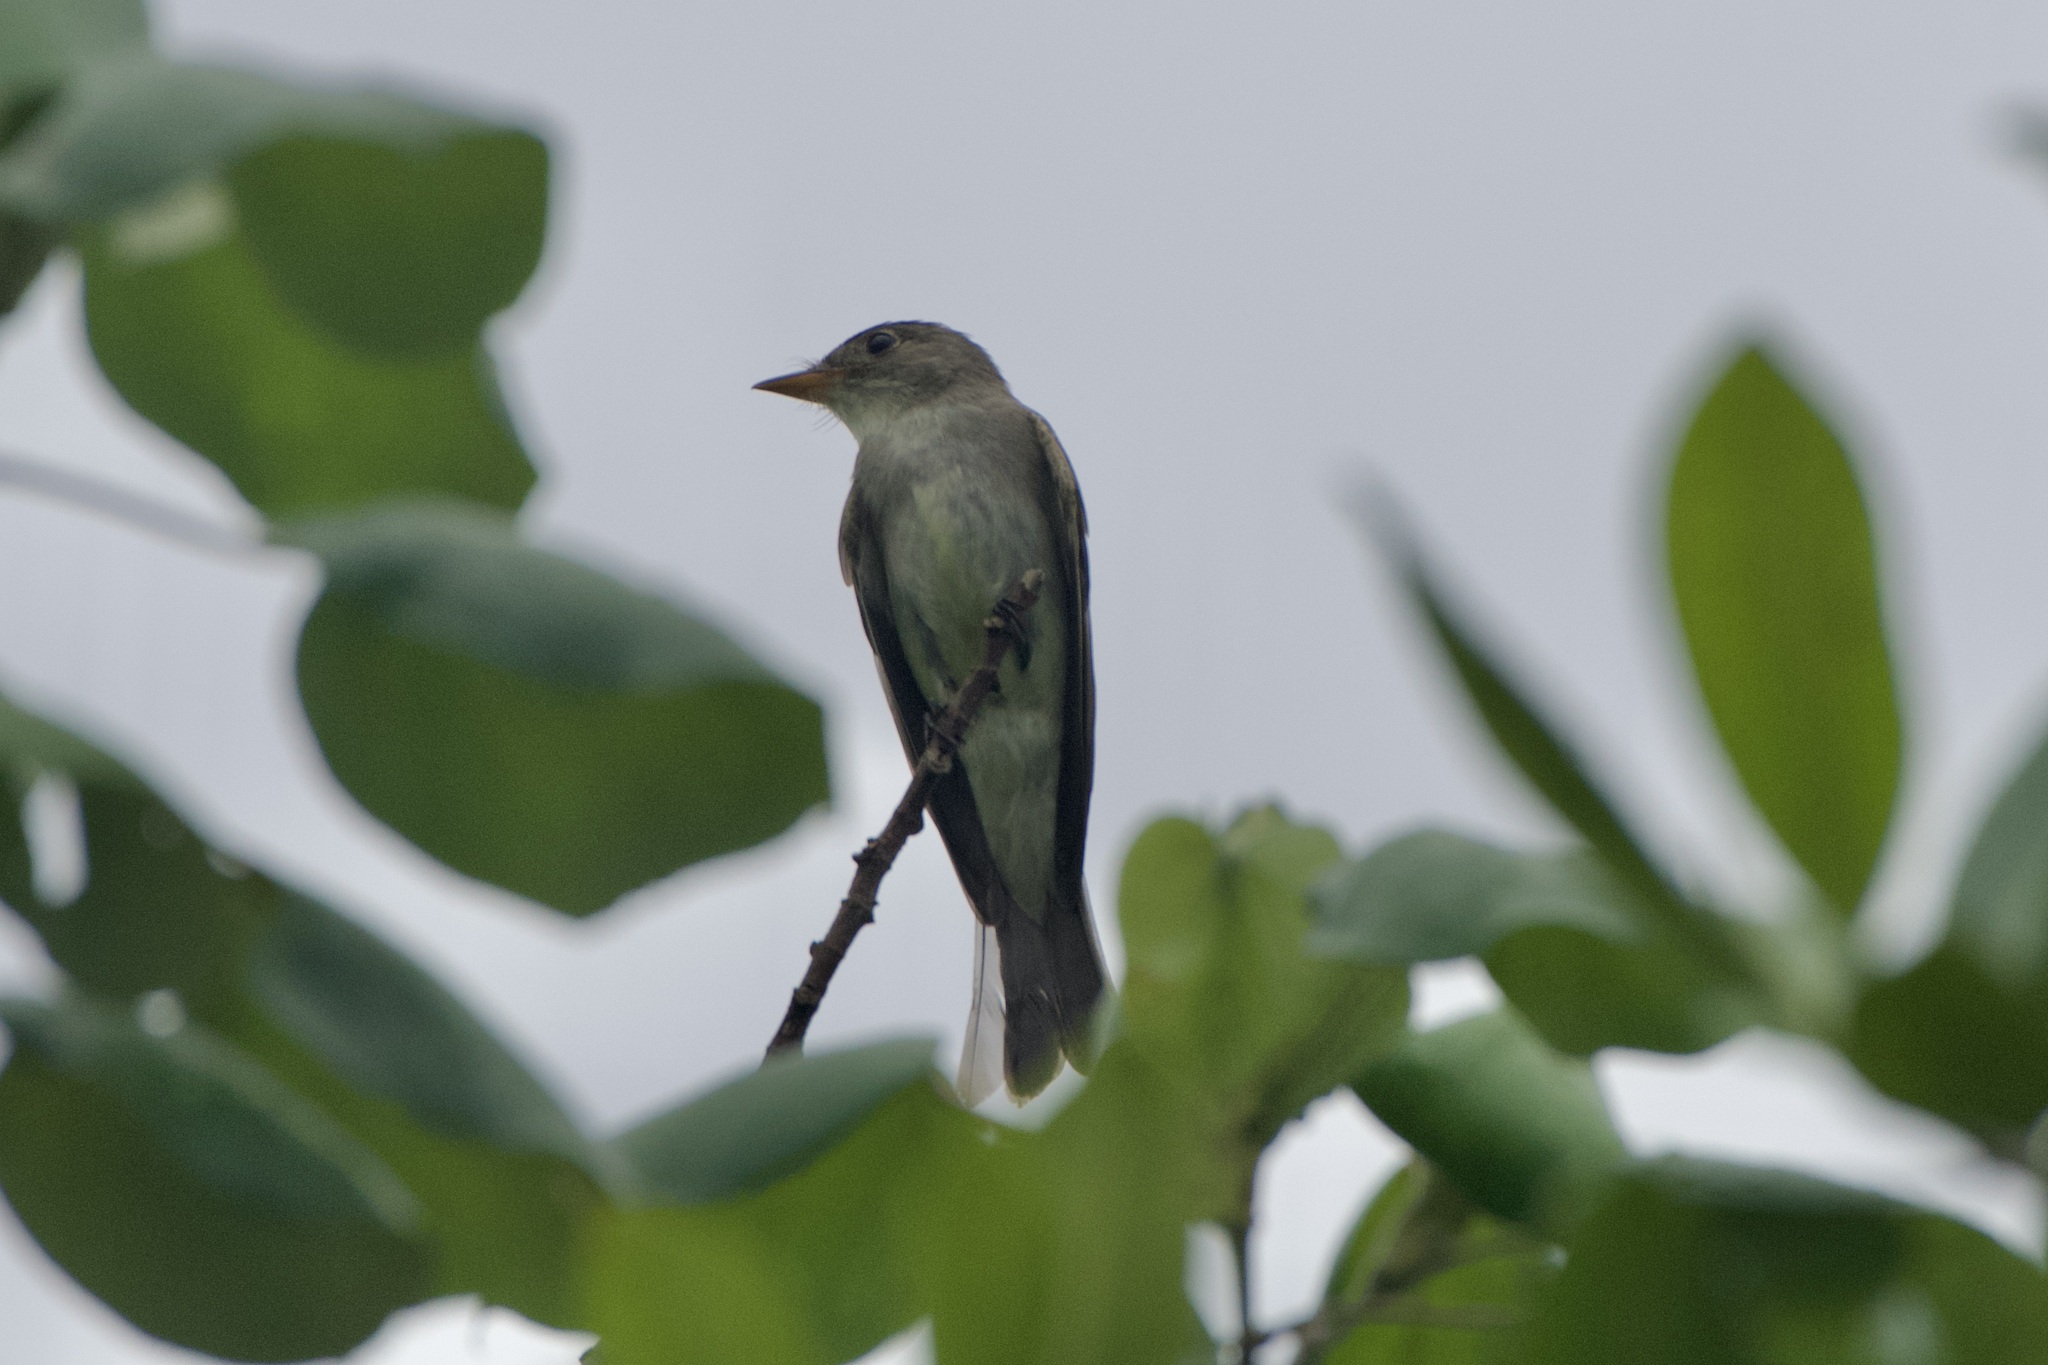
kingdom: Animalia
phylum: Chordata
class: Aves
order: Passeriformes
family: Tyrannidae
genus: Contopus
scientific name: Contopus virens
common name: Eastern wood-pewee
